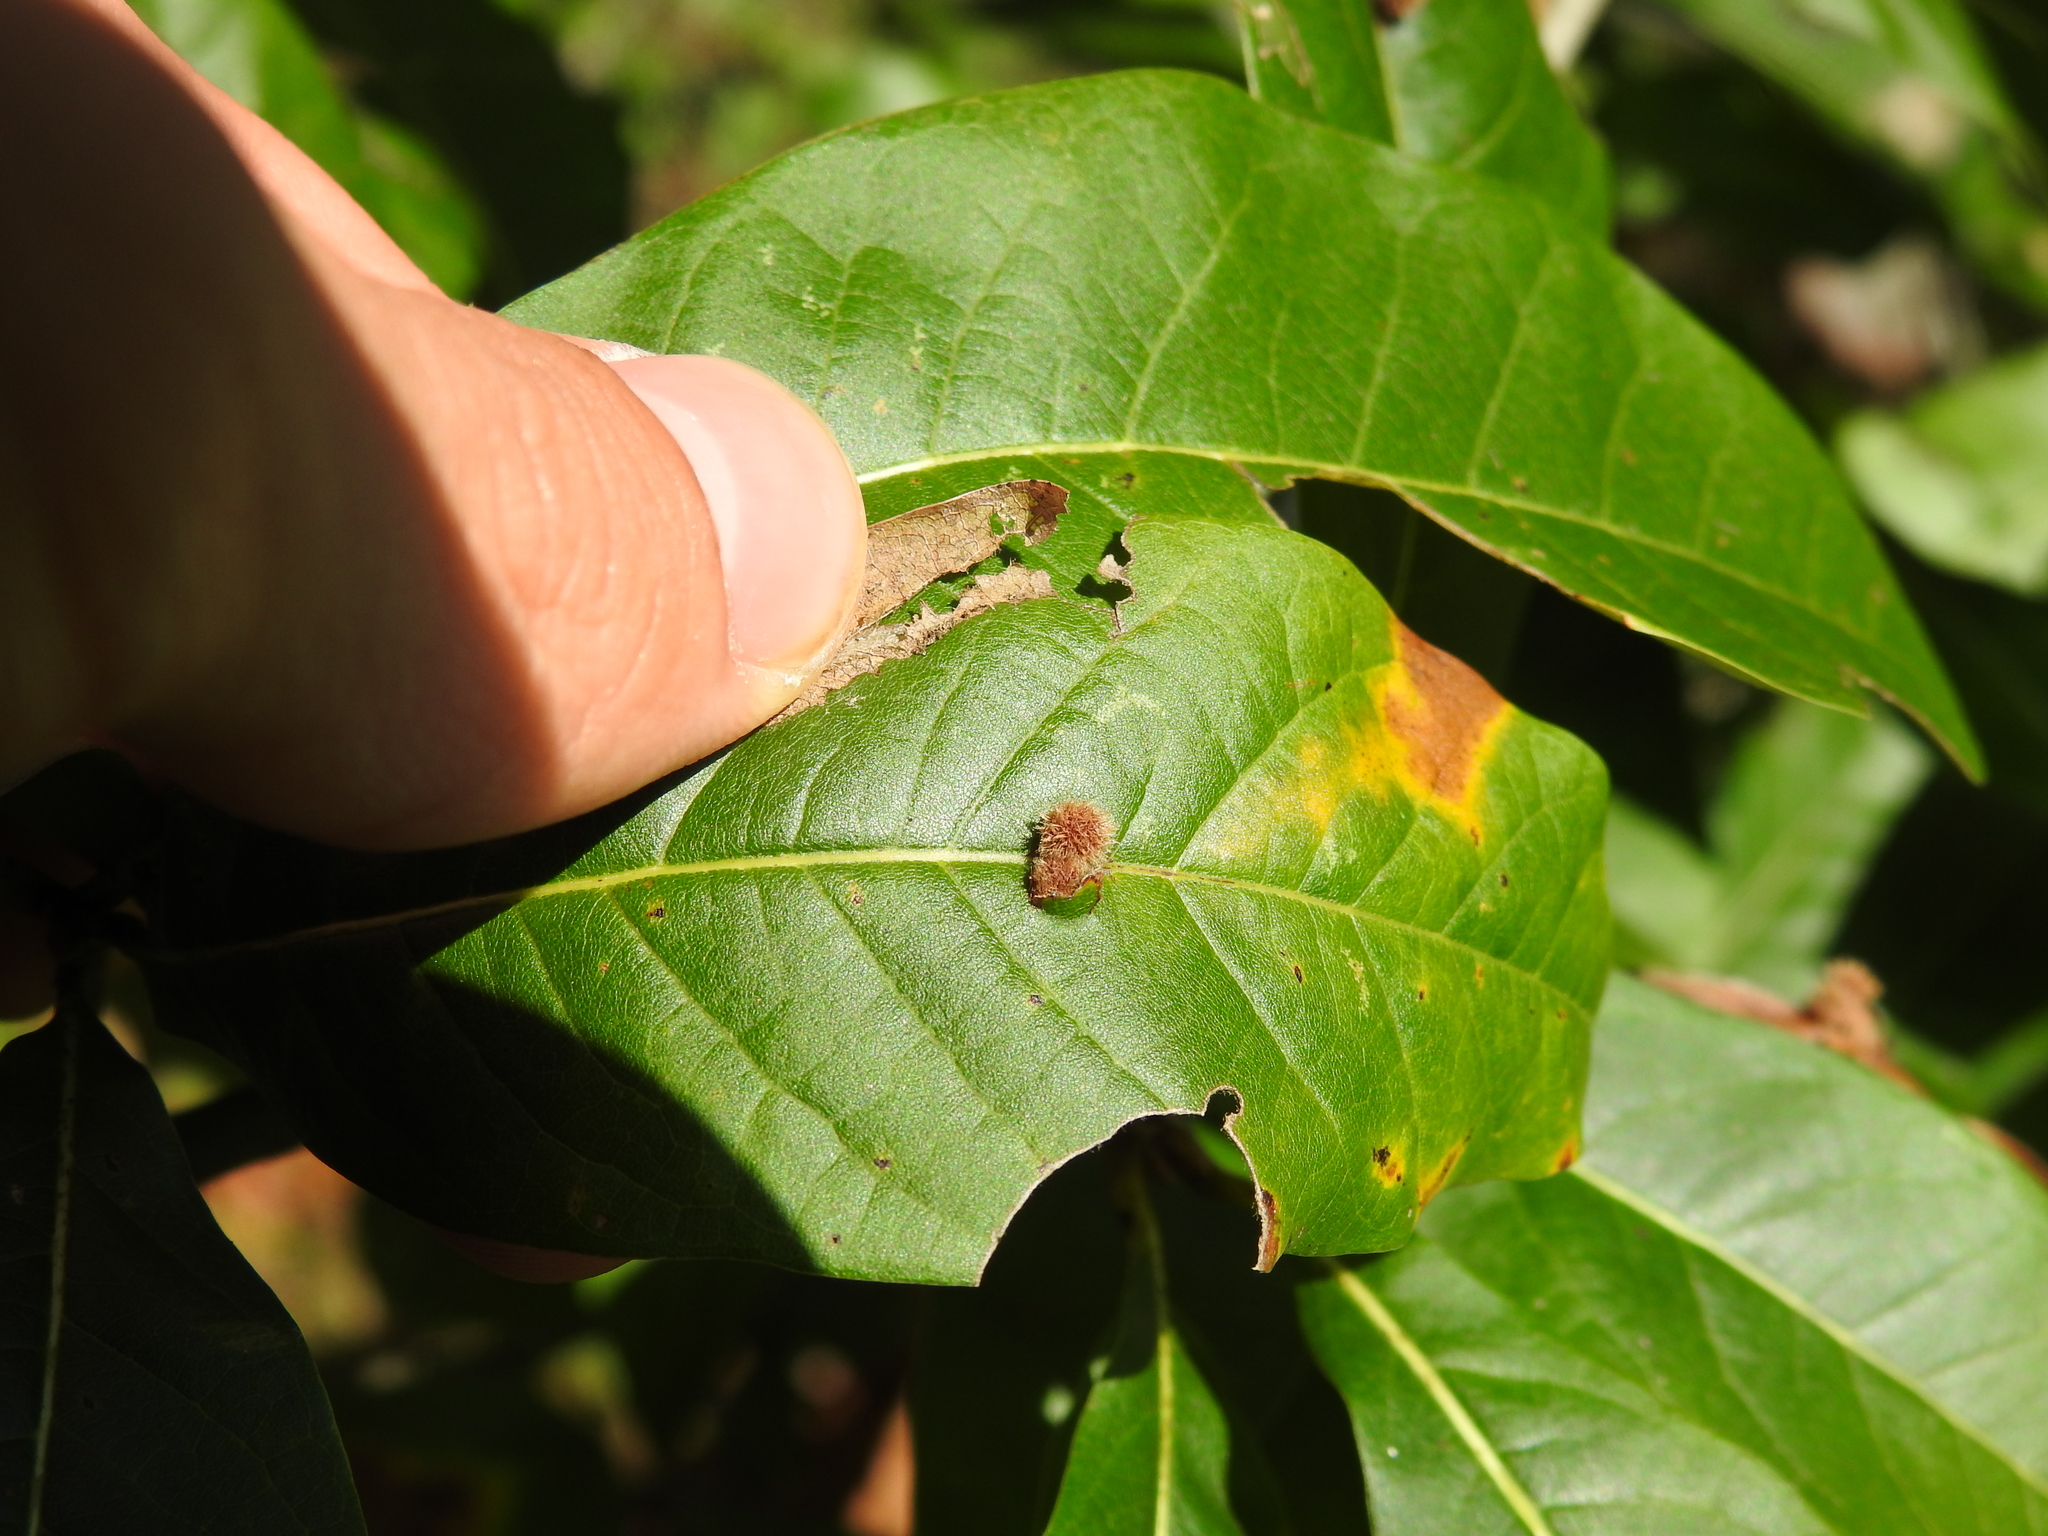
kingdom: Animalia
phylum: Arthropoda
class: Insecta
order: Hymenoptera
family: Cynipidae
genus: Callirhytis
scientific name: Callirhytis
